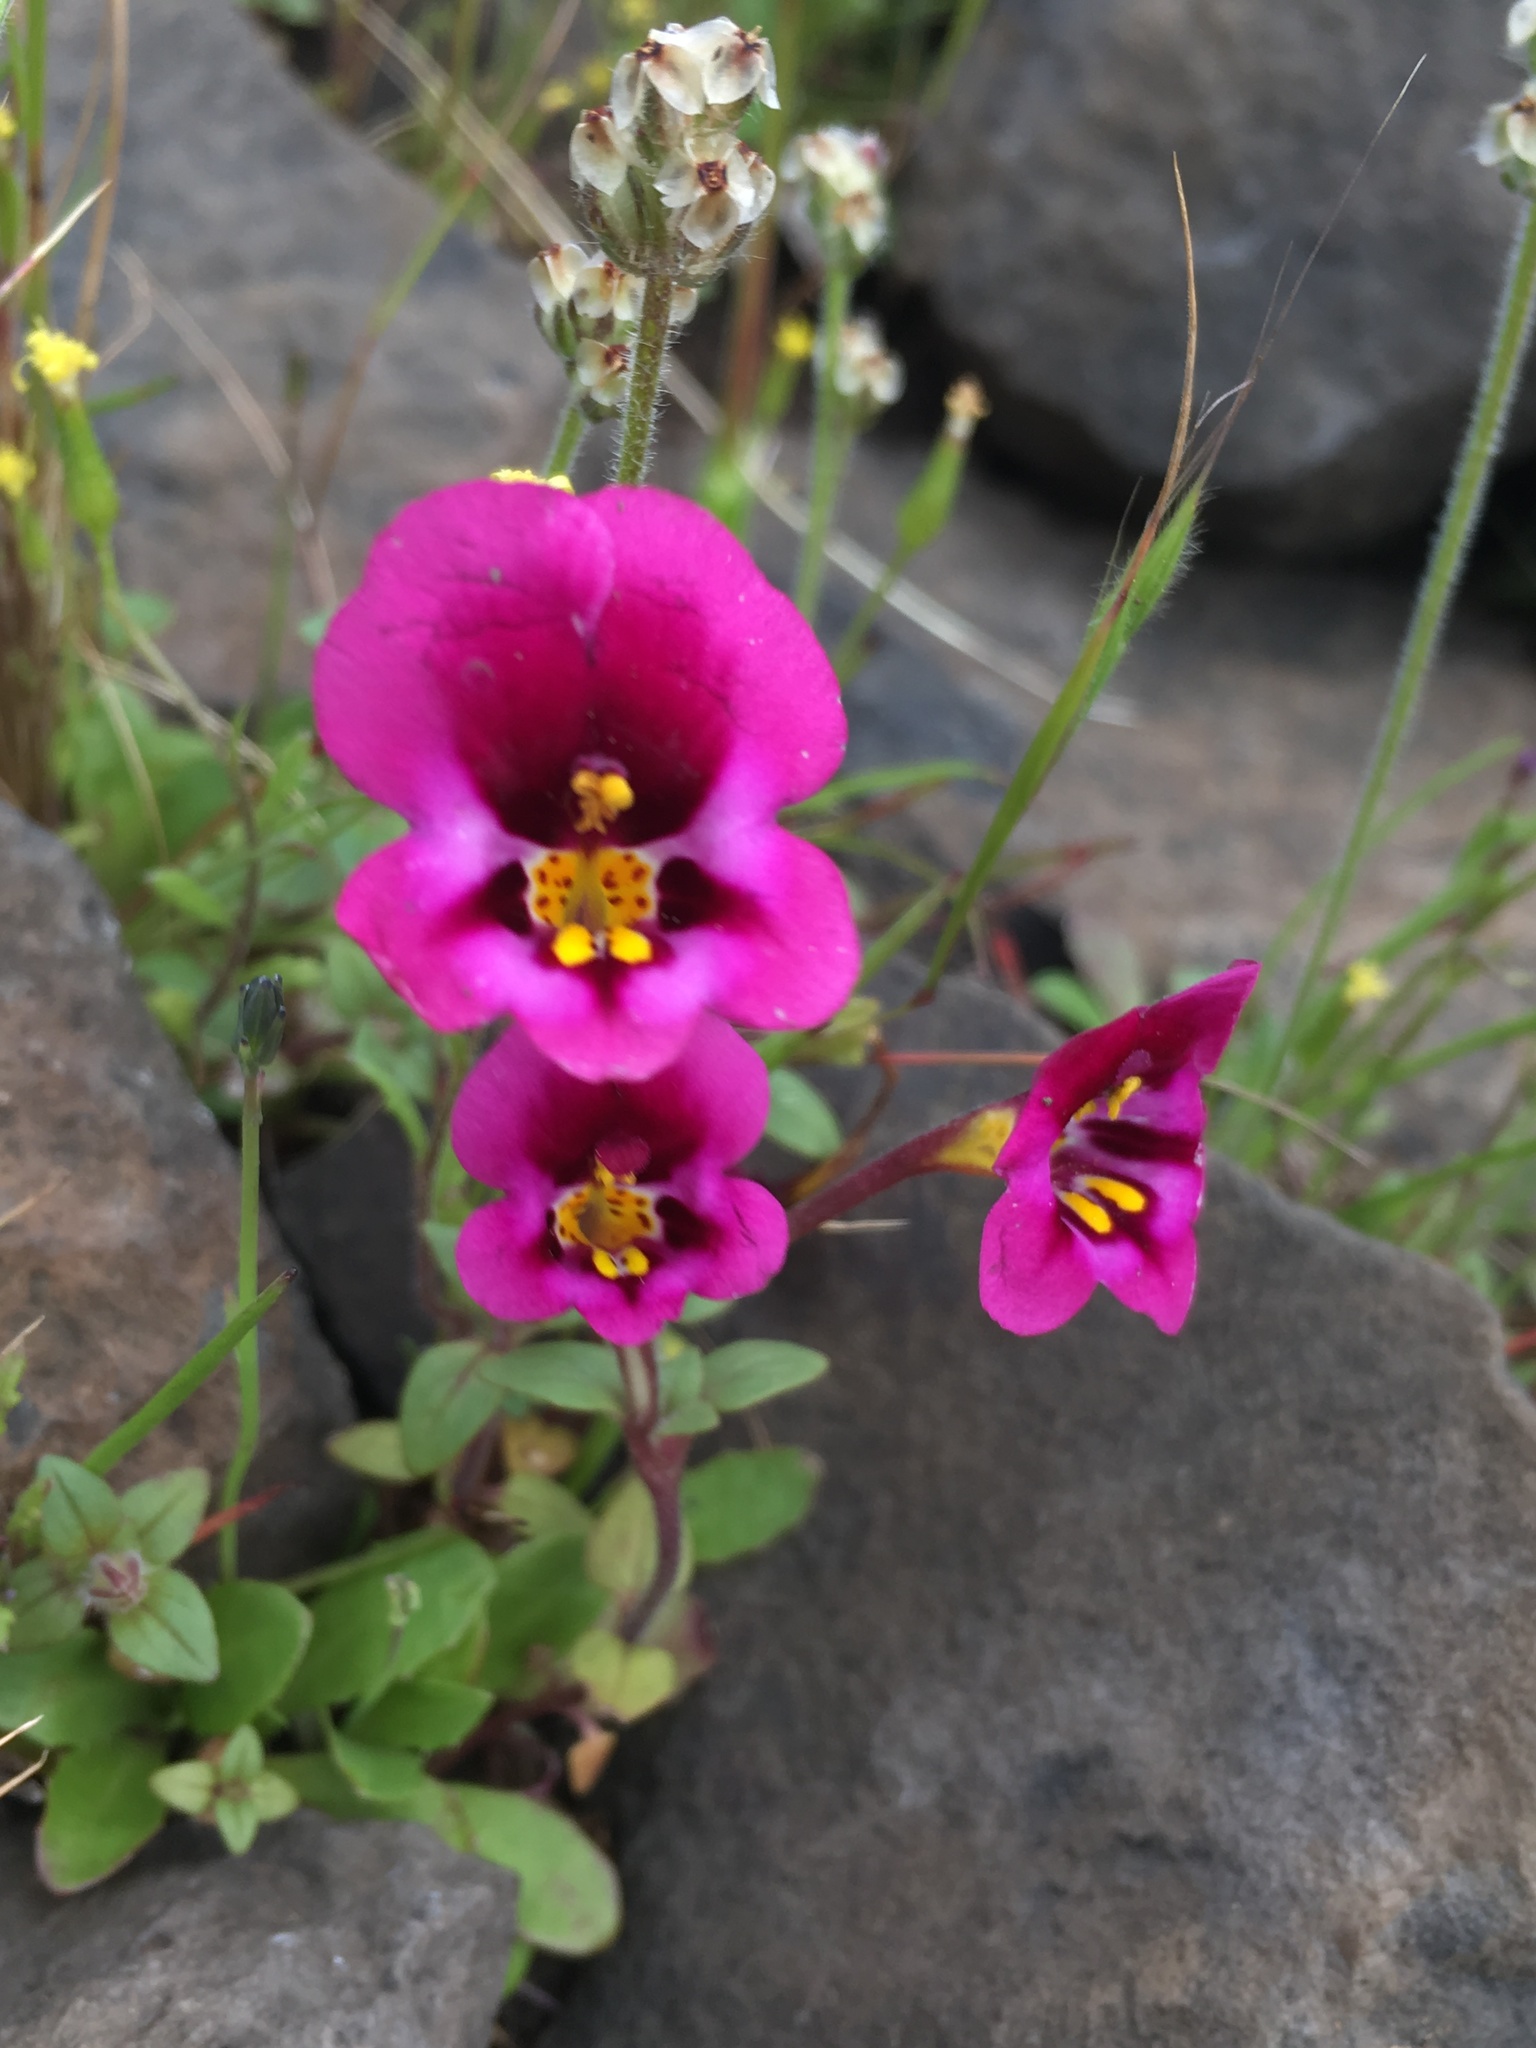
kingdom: Plantae
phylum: Tracheophyta
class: Magnoliopsida
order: Lamiales
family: Phrymaceae
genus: Diplacus
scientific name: Diplacus kelloggii
